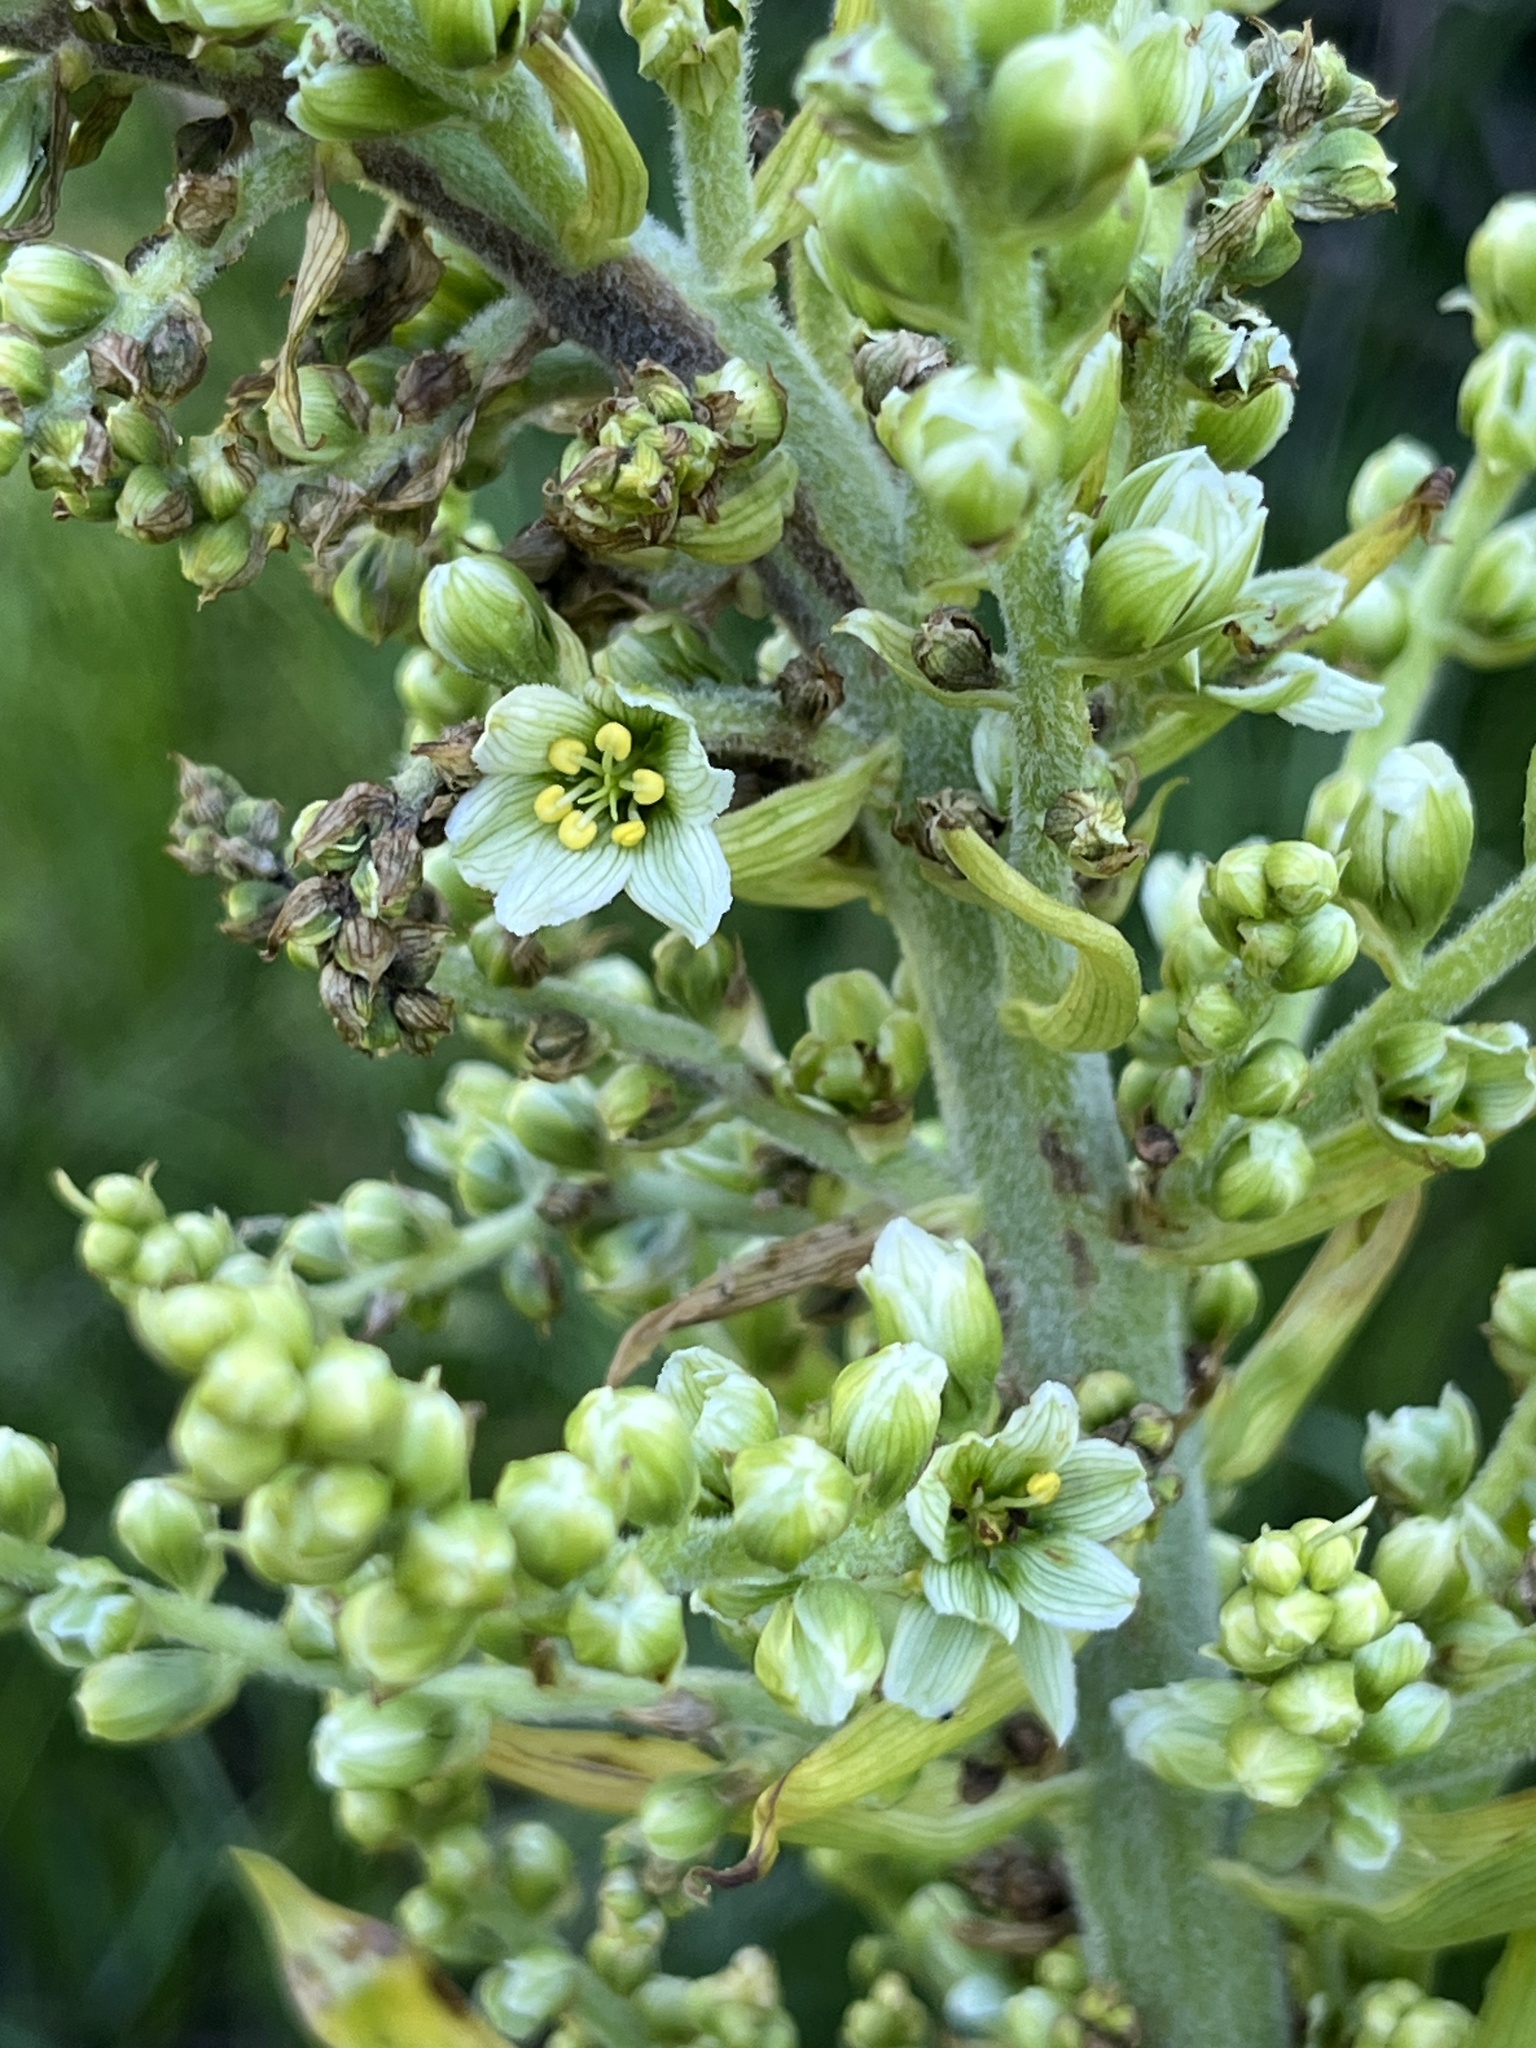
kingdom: Plantae
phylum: Tracheophyta
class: Liliopsida
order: Liliales
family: Melanthiaceae
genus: Veratrum
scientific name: Veratrum californicum
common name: California veratrum
